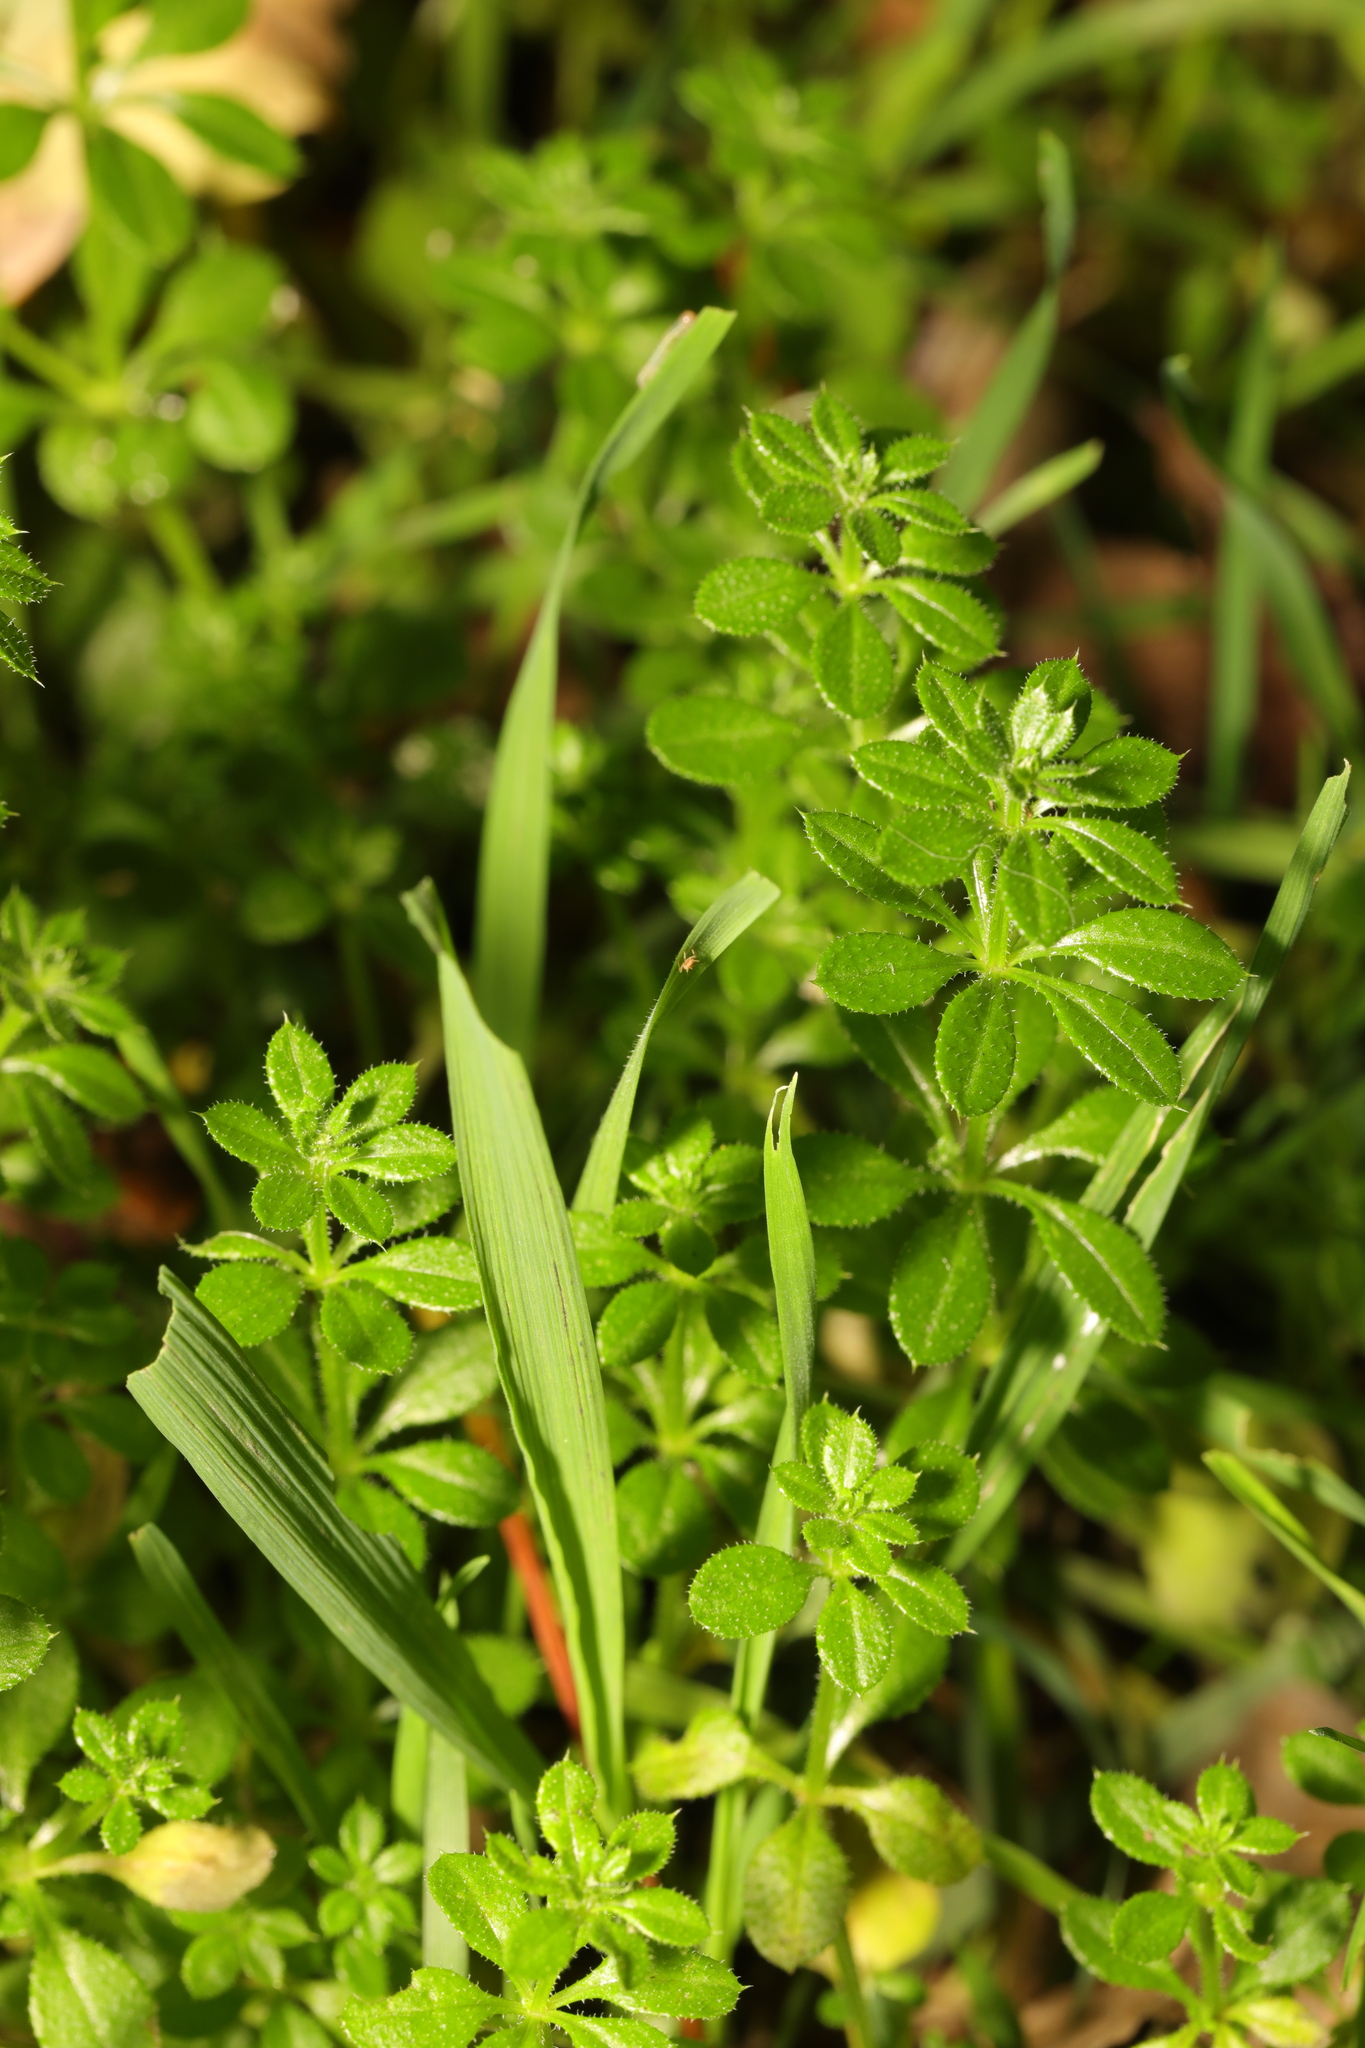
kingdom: Plantae
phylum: Tracheophyta
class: Magnoliopsida
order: Gentianales
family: Rubiaceae
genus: Galium
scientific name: Galium aparine
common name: Cleavers
